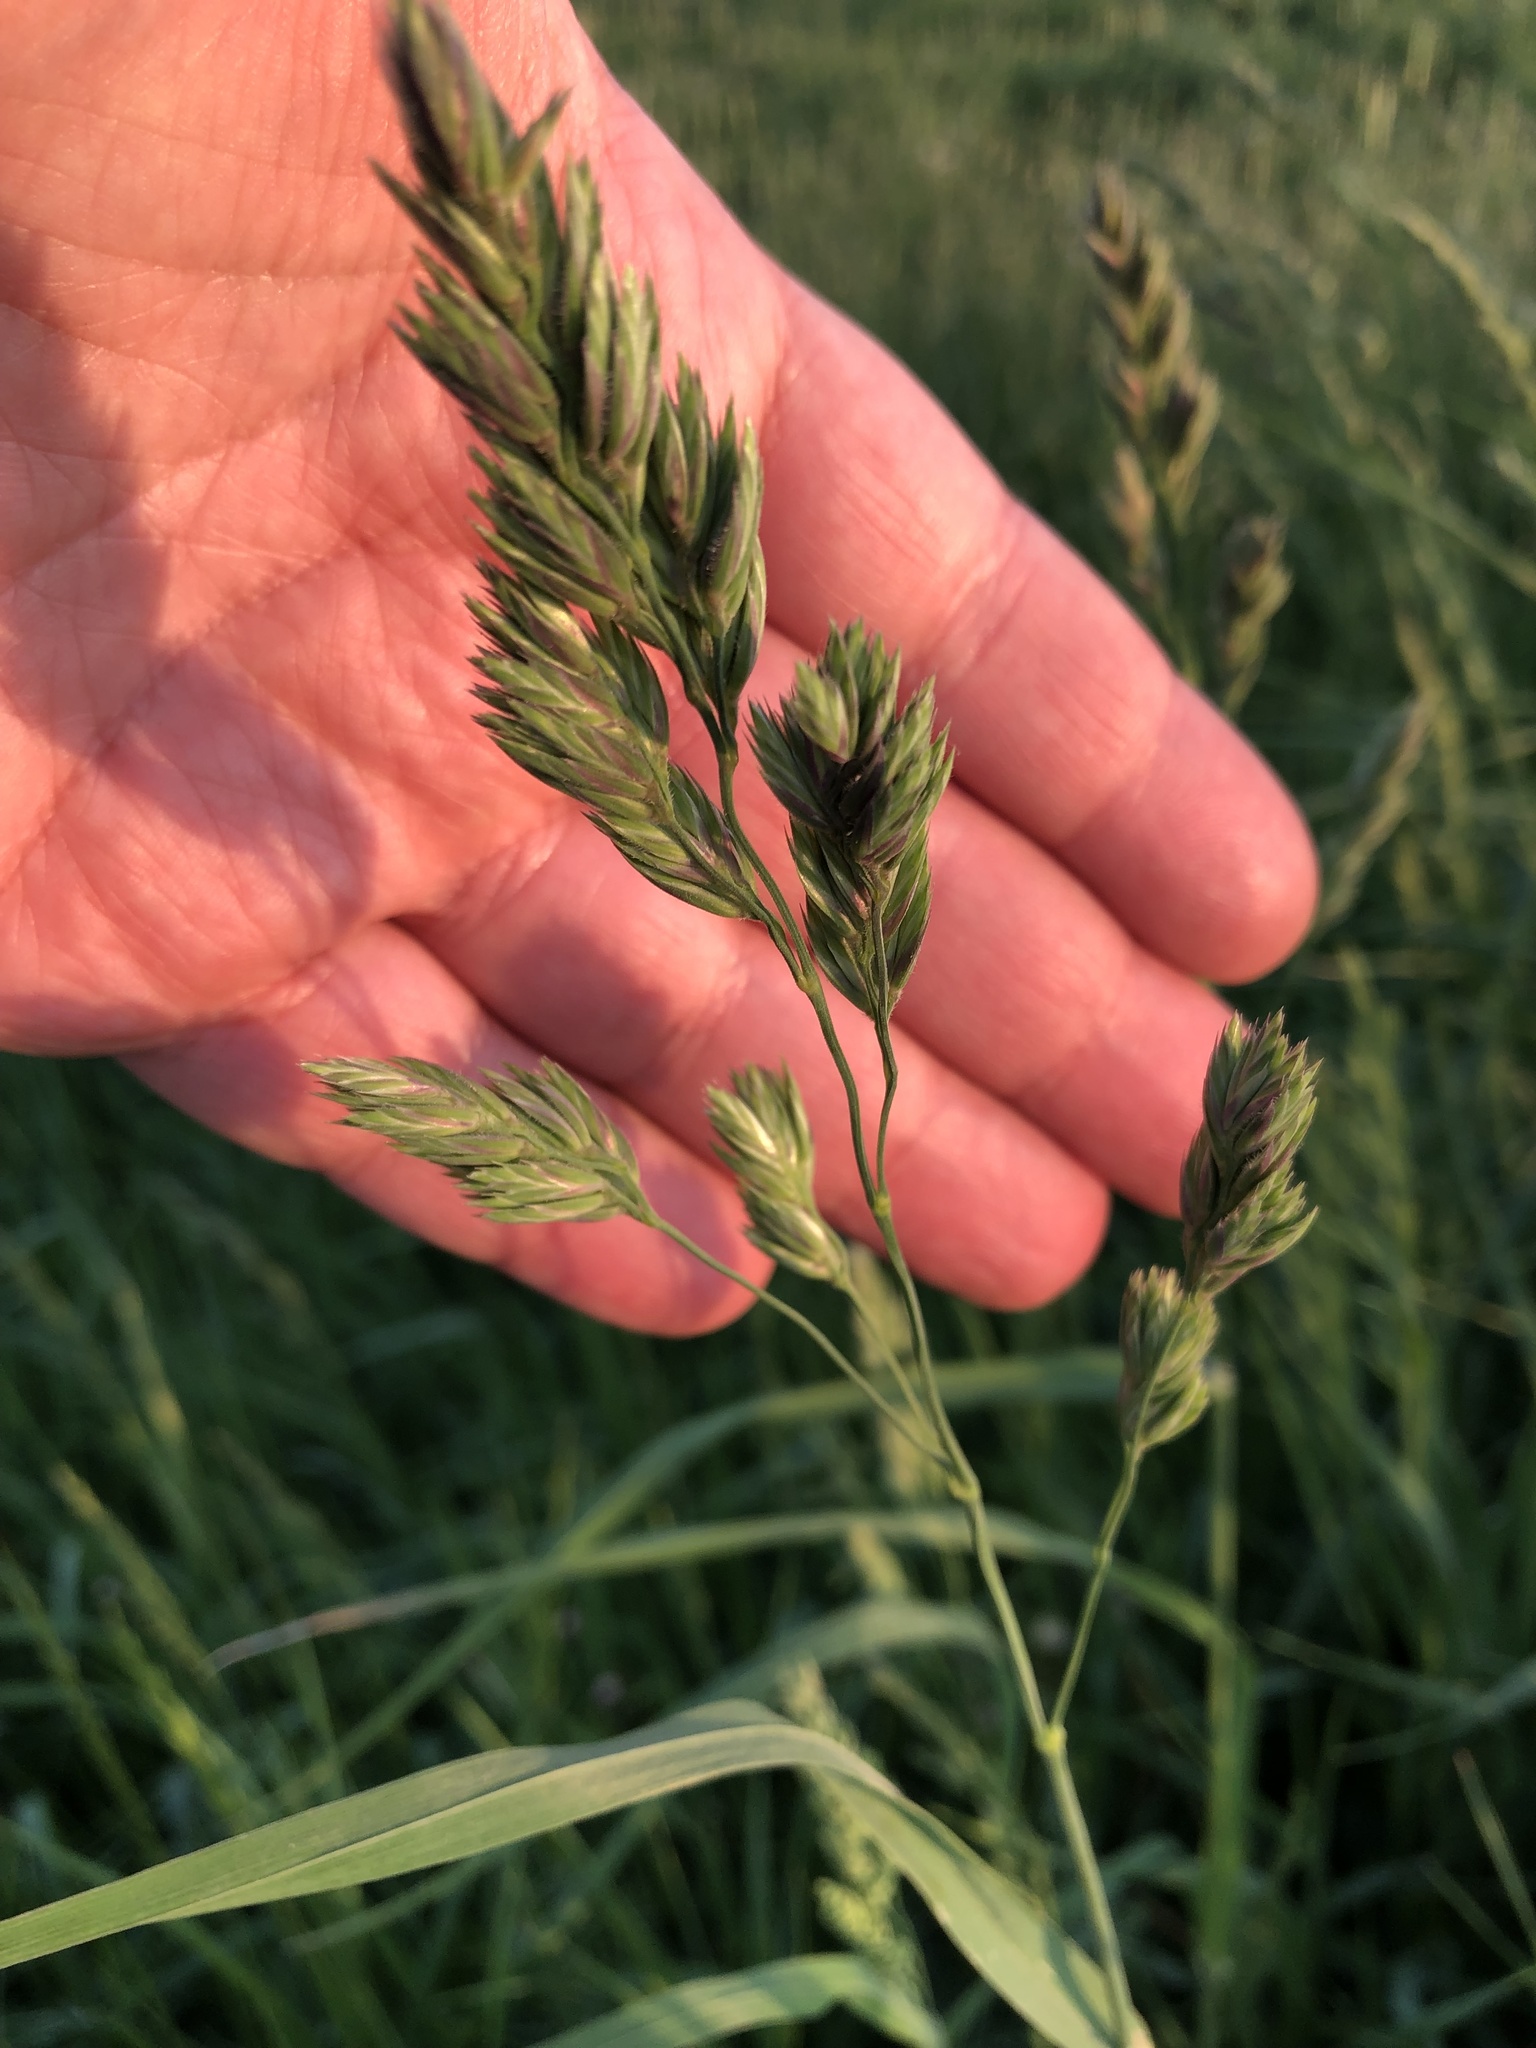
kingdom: Plantae
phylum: Tracheophyta
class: Liliopsida
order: Poales
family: Poaceae
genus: Dactylis
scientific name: Dactylis glomerata
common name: Orchardgrass
